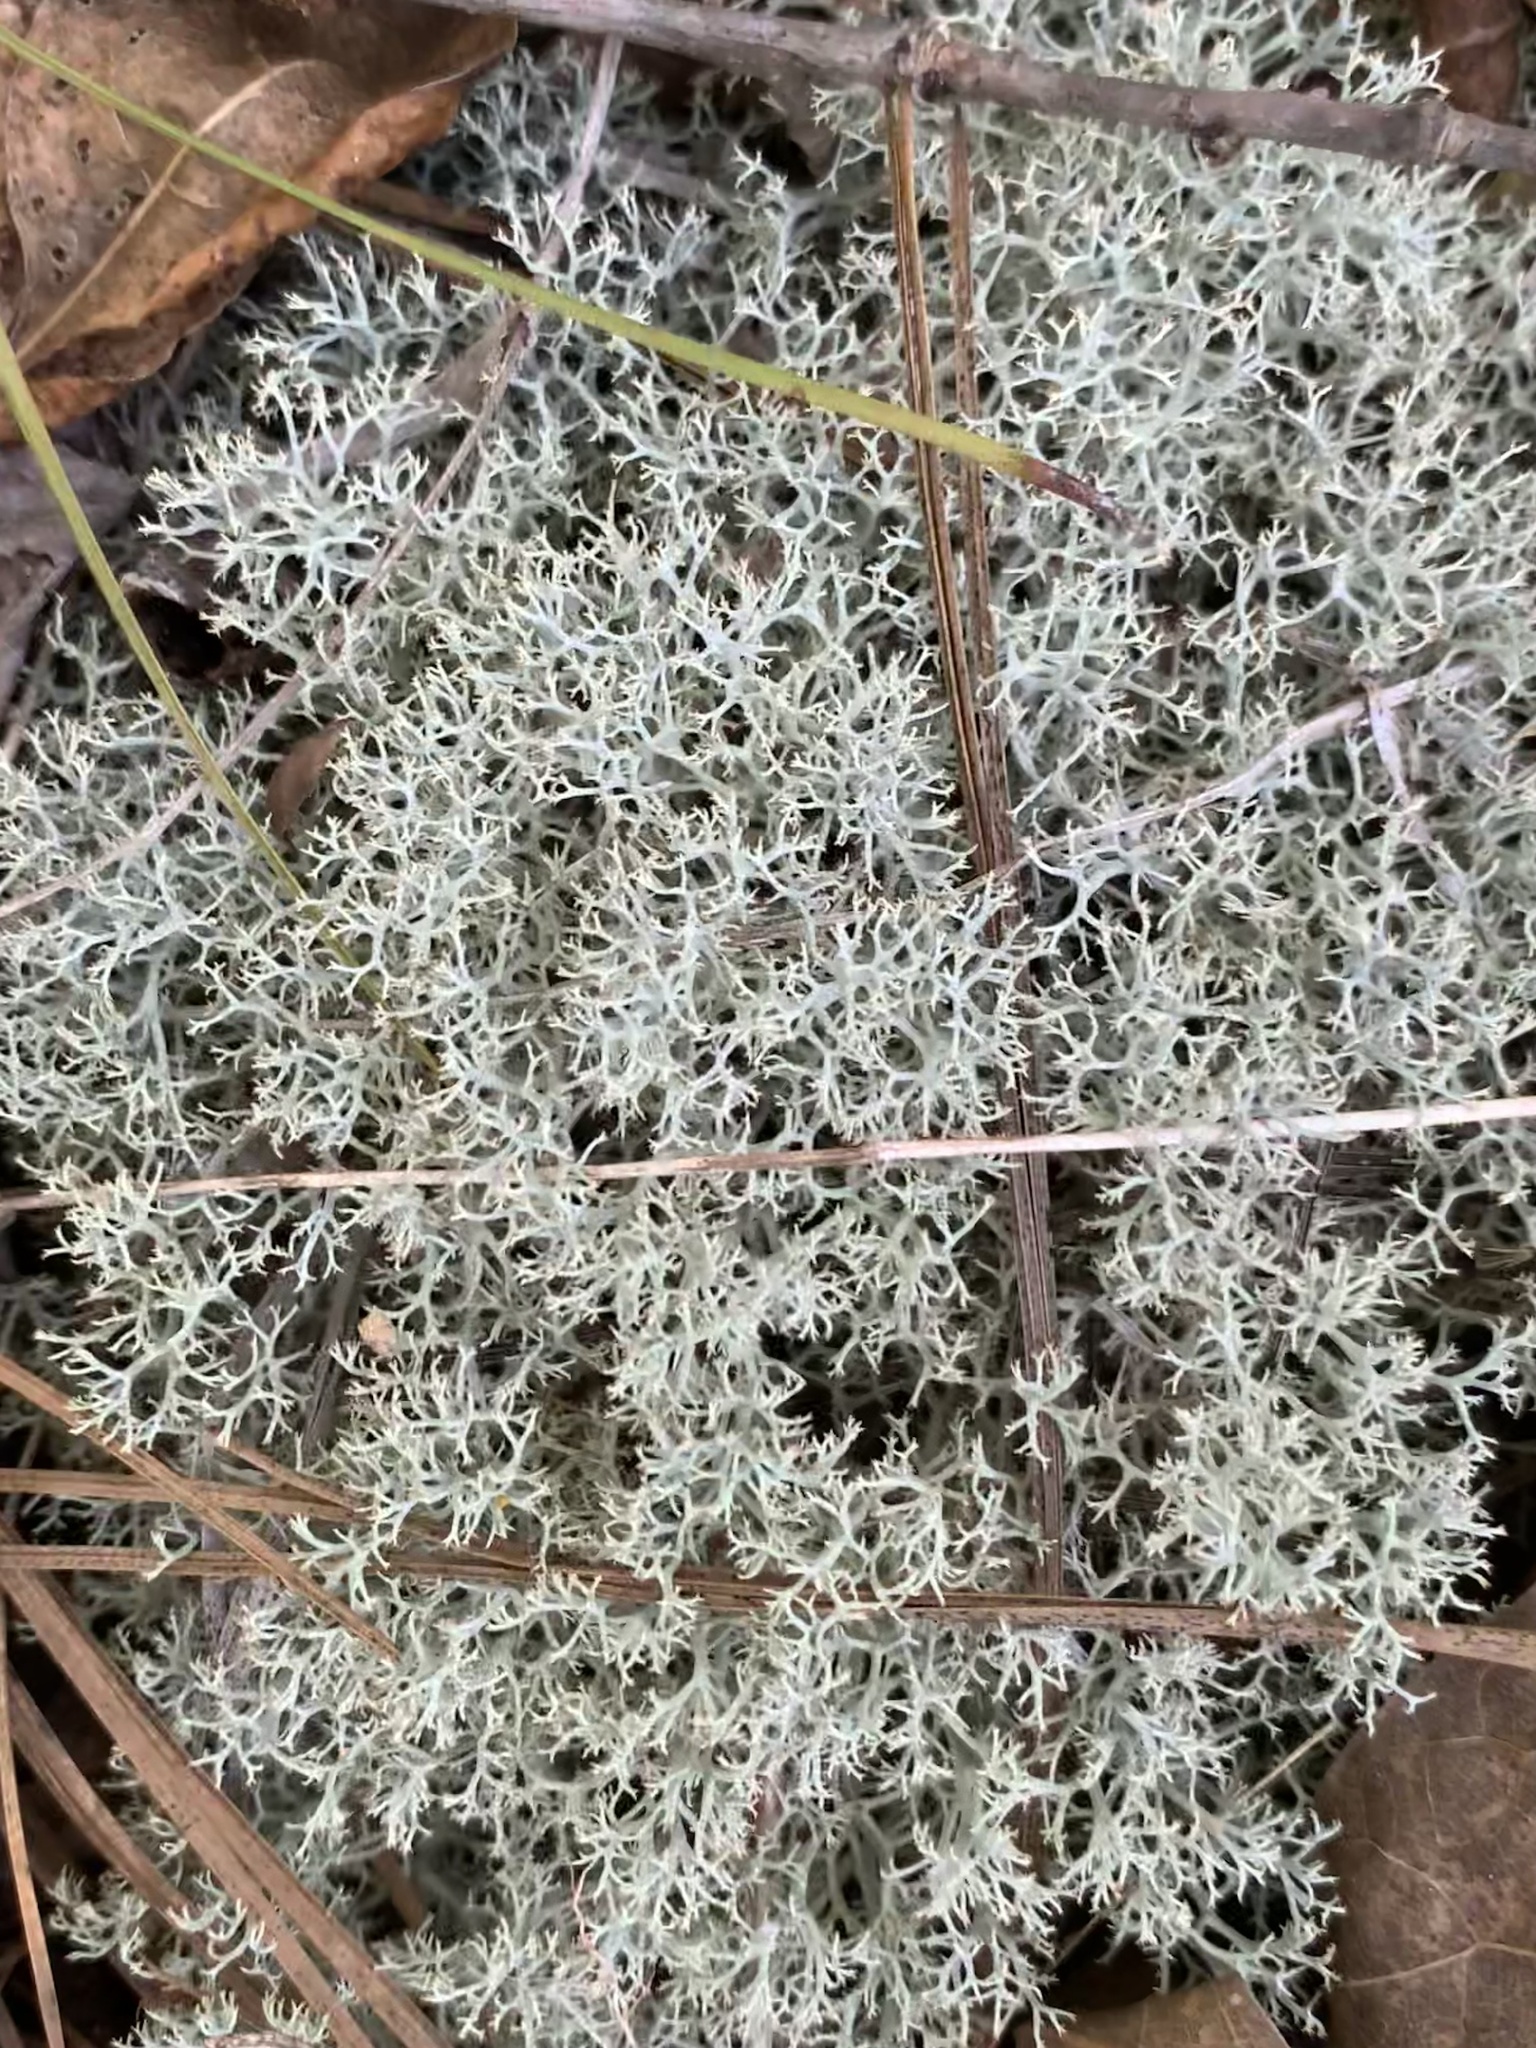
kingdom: Fungi
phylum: Ascomycota
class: Lecanoromycetes
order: Lecanorales
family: Cladoniaceae
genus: Cladonia
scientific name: Cladonia subtenuis
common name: Dixie reindeer lichen
